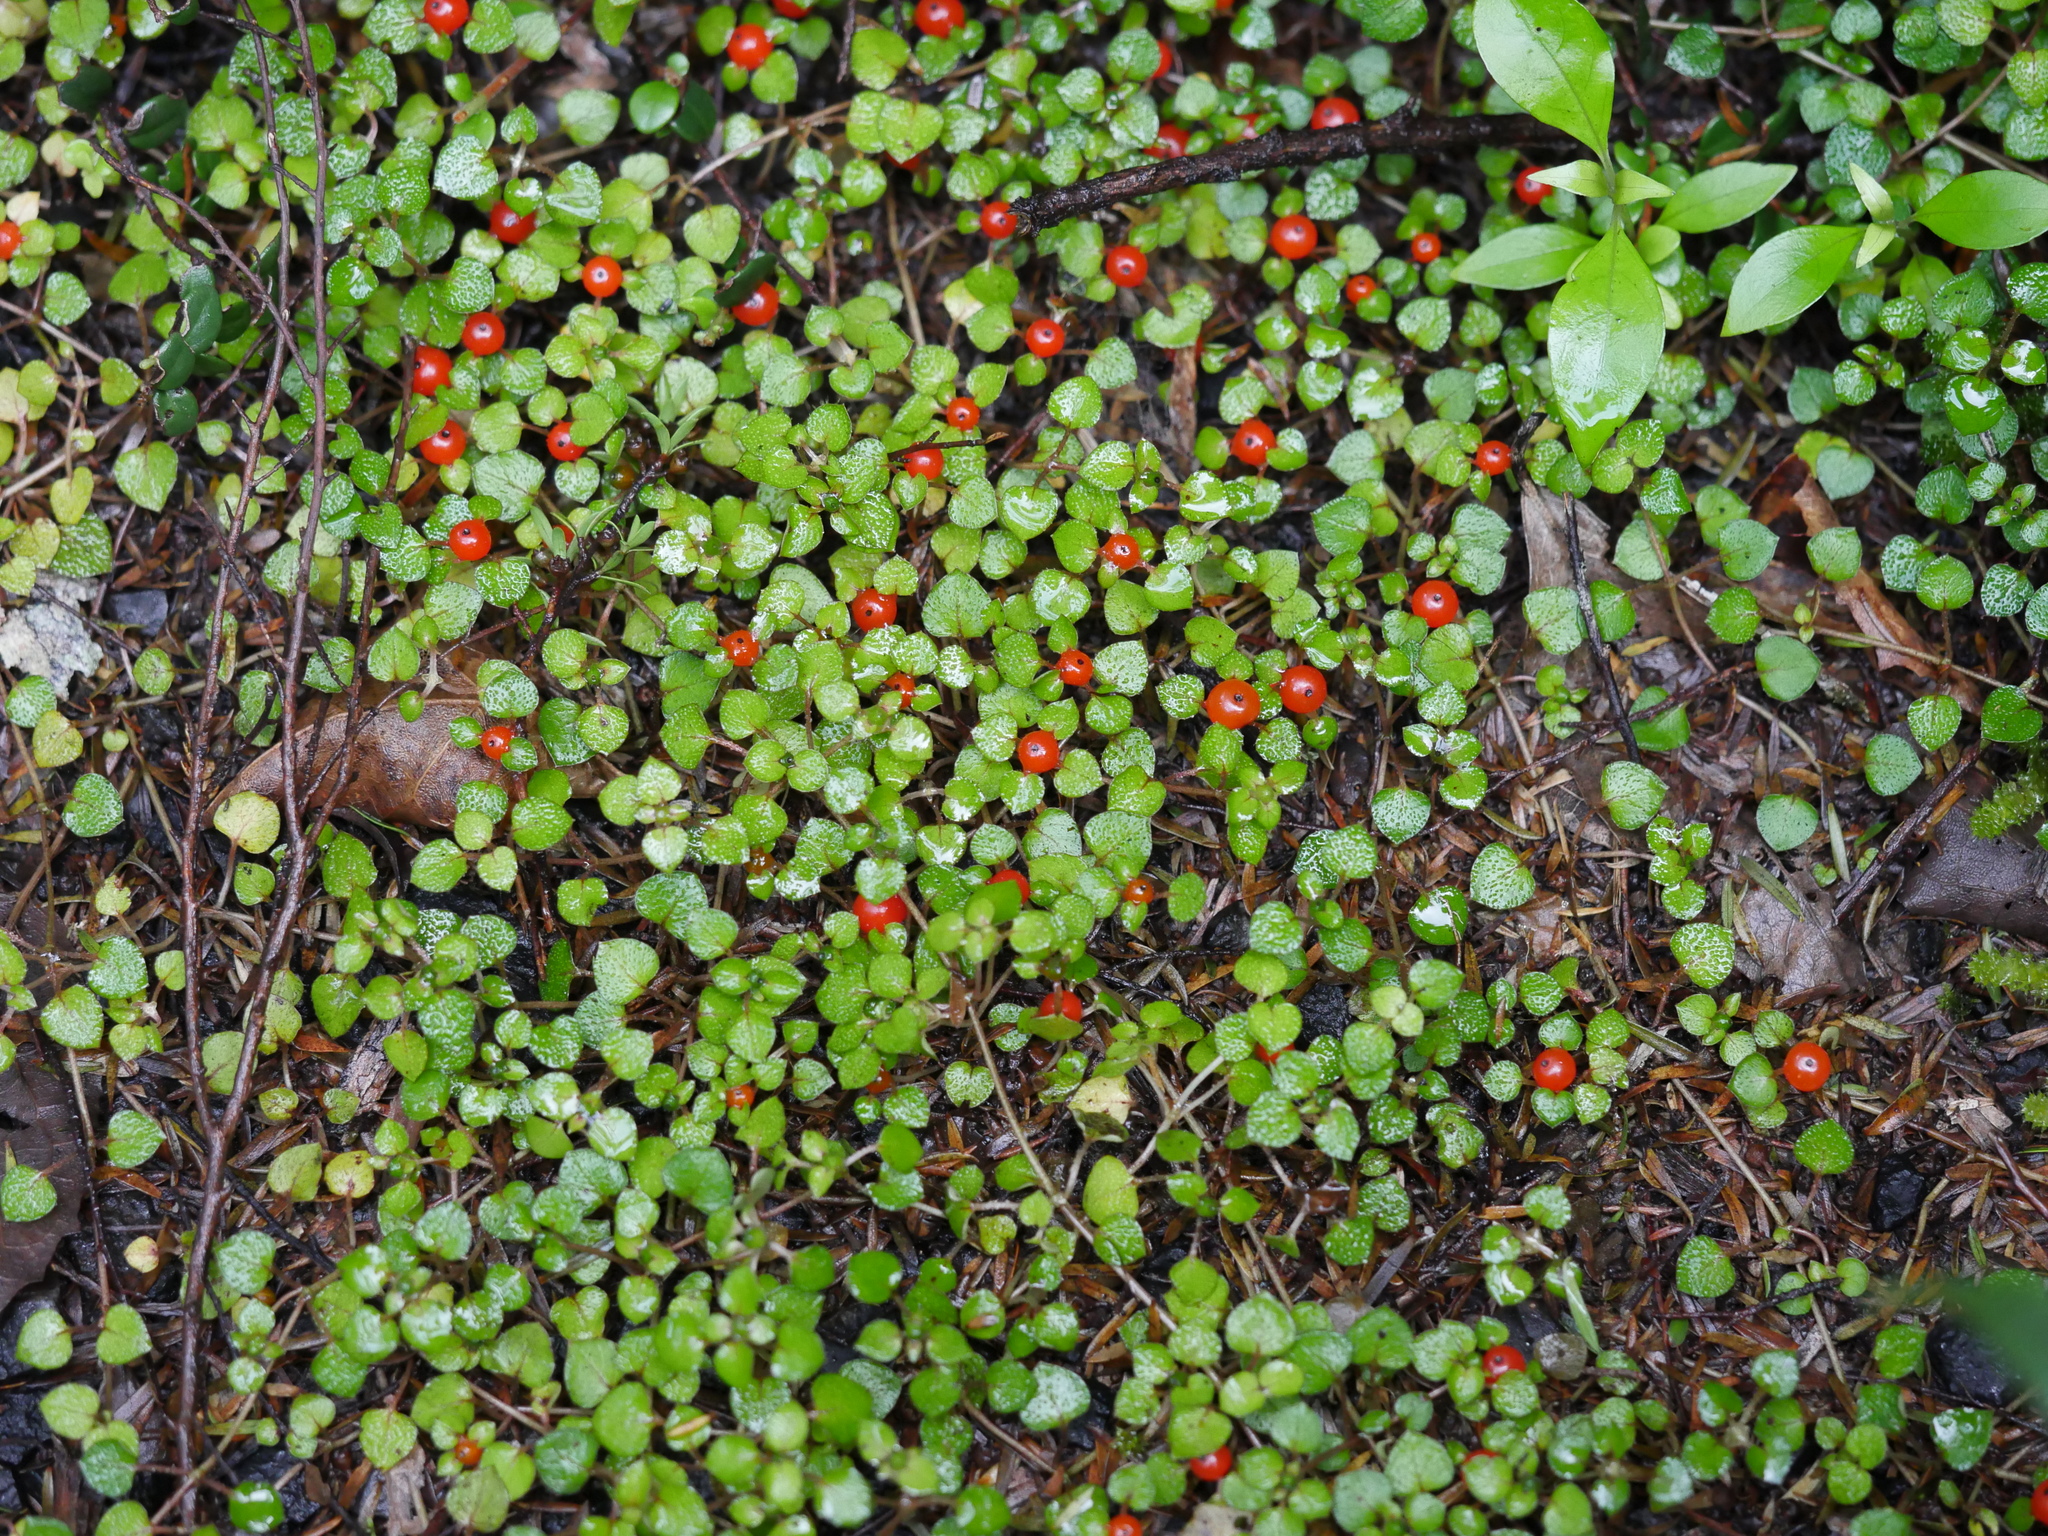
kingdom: Plantae
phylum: Tracheophyta
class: Magnoliopsida
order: Gentianales
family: Rubiaceae
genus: Nertera
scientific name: Nertera dichondrifolia
